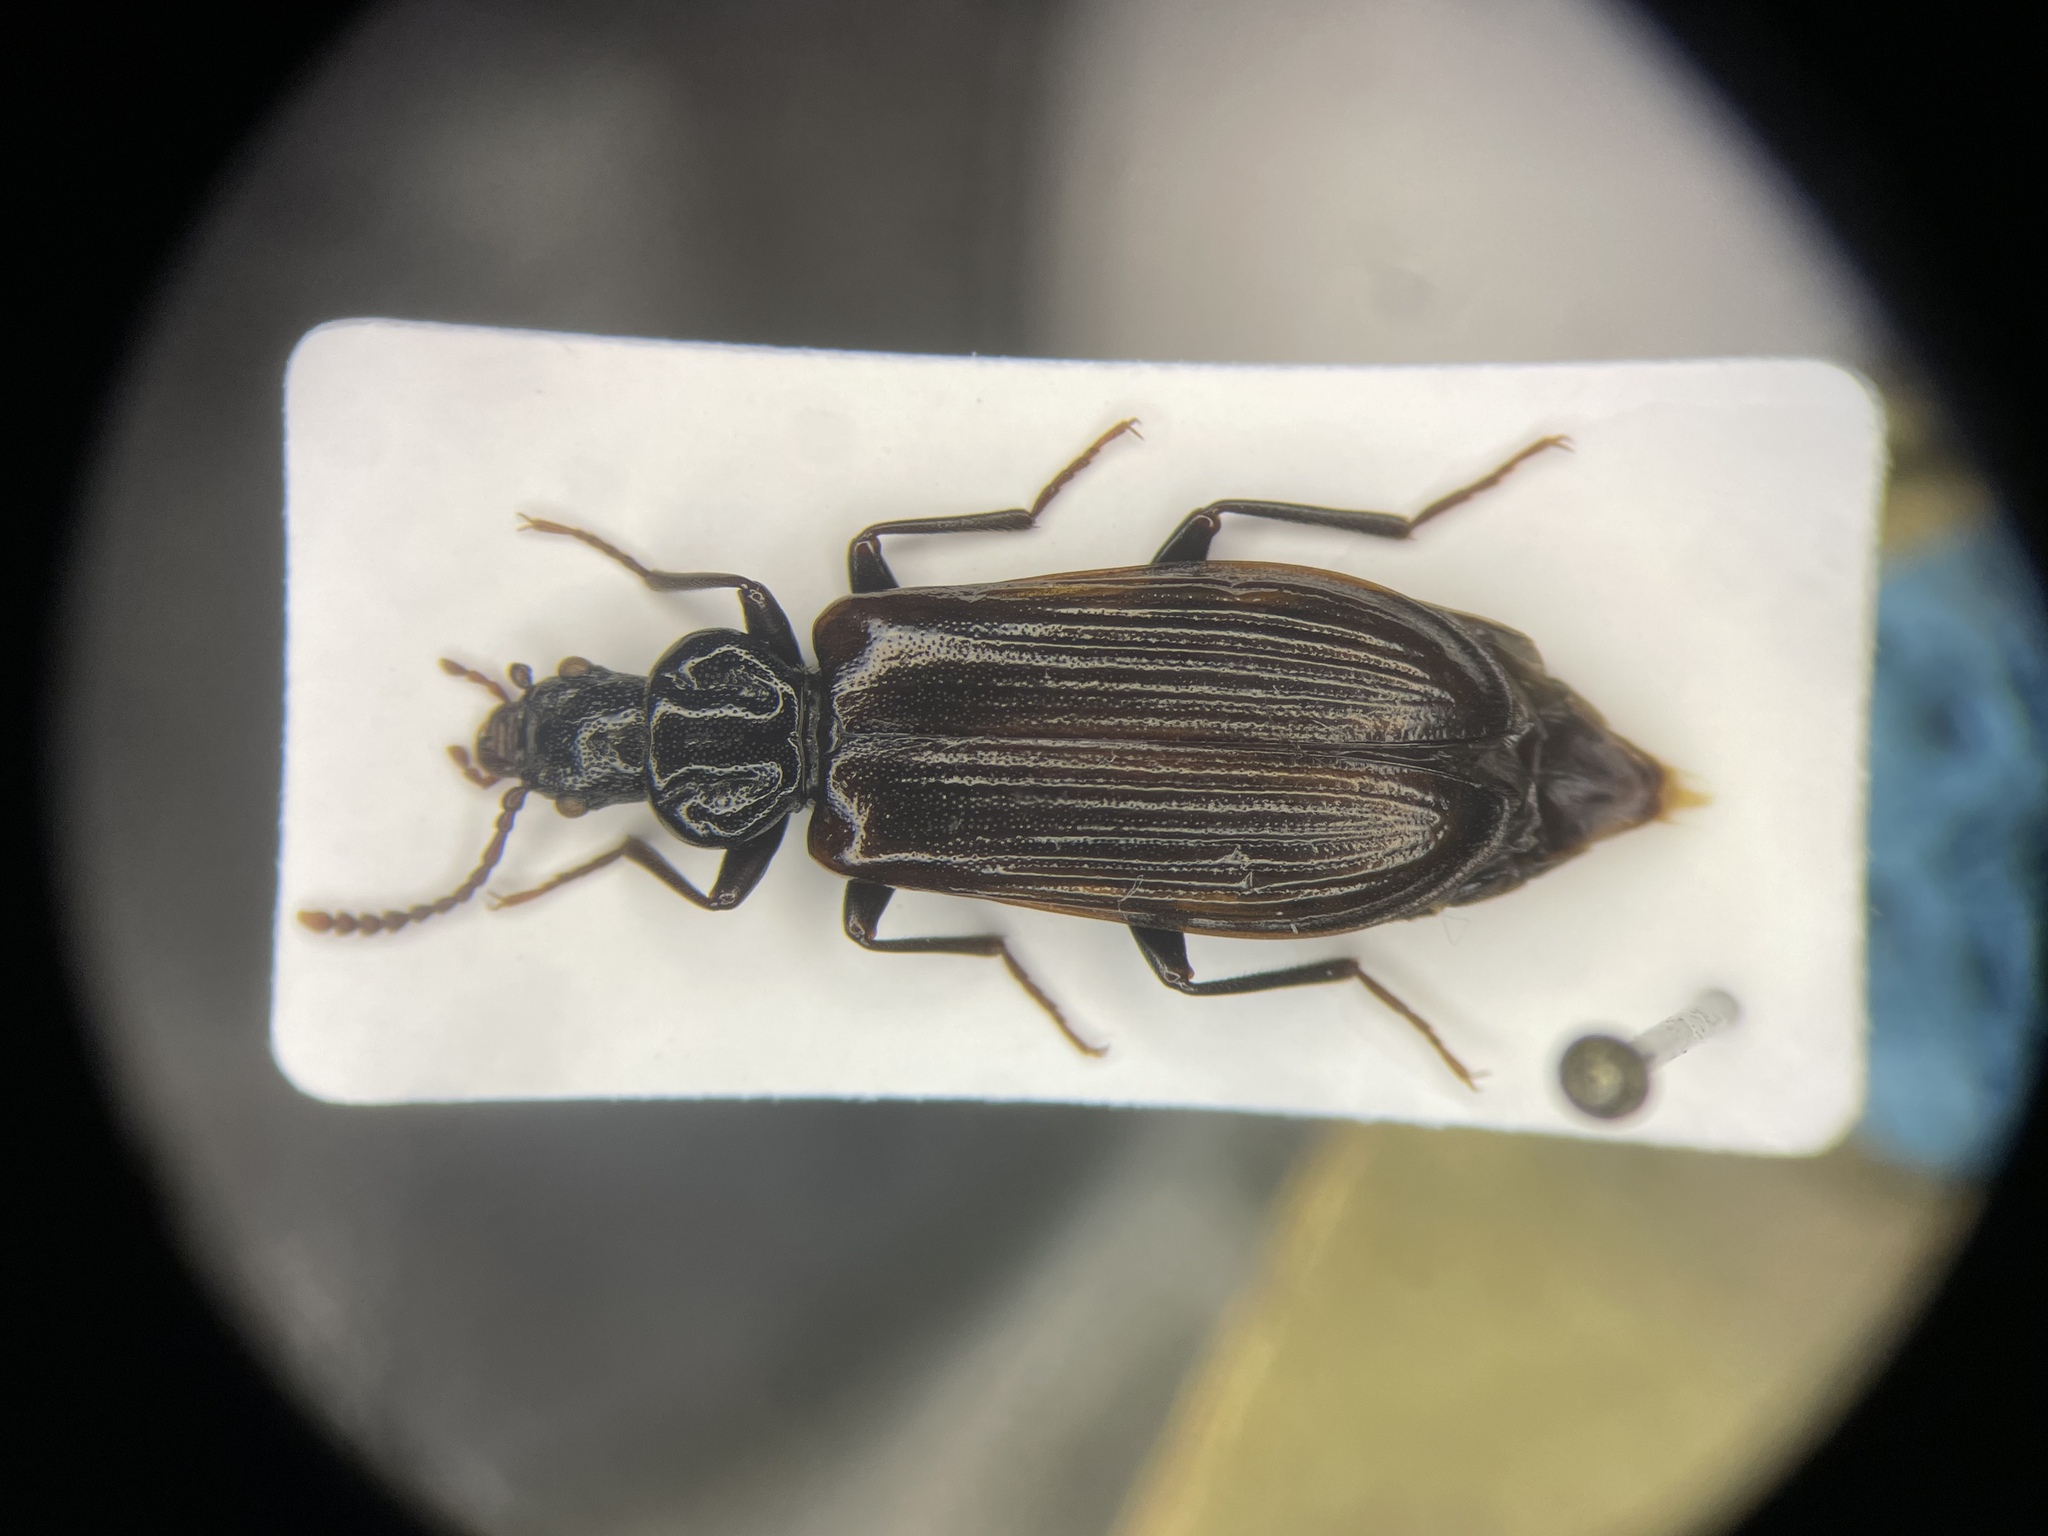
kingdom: Animalia
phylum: Arthropoda
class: Insecta
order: Coleoptera
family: Pythidae
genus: Pytho
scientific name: Pytho niger
